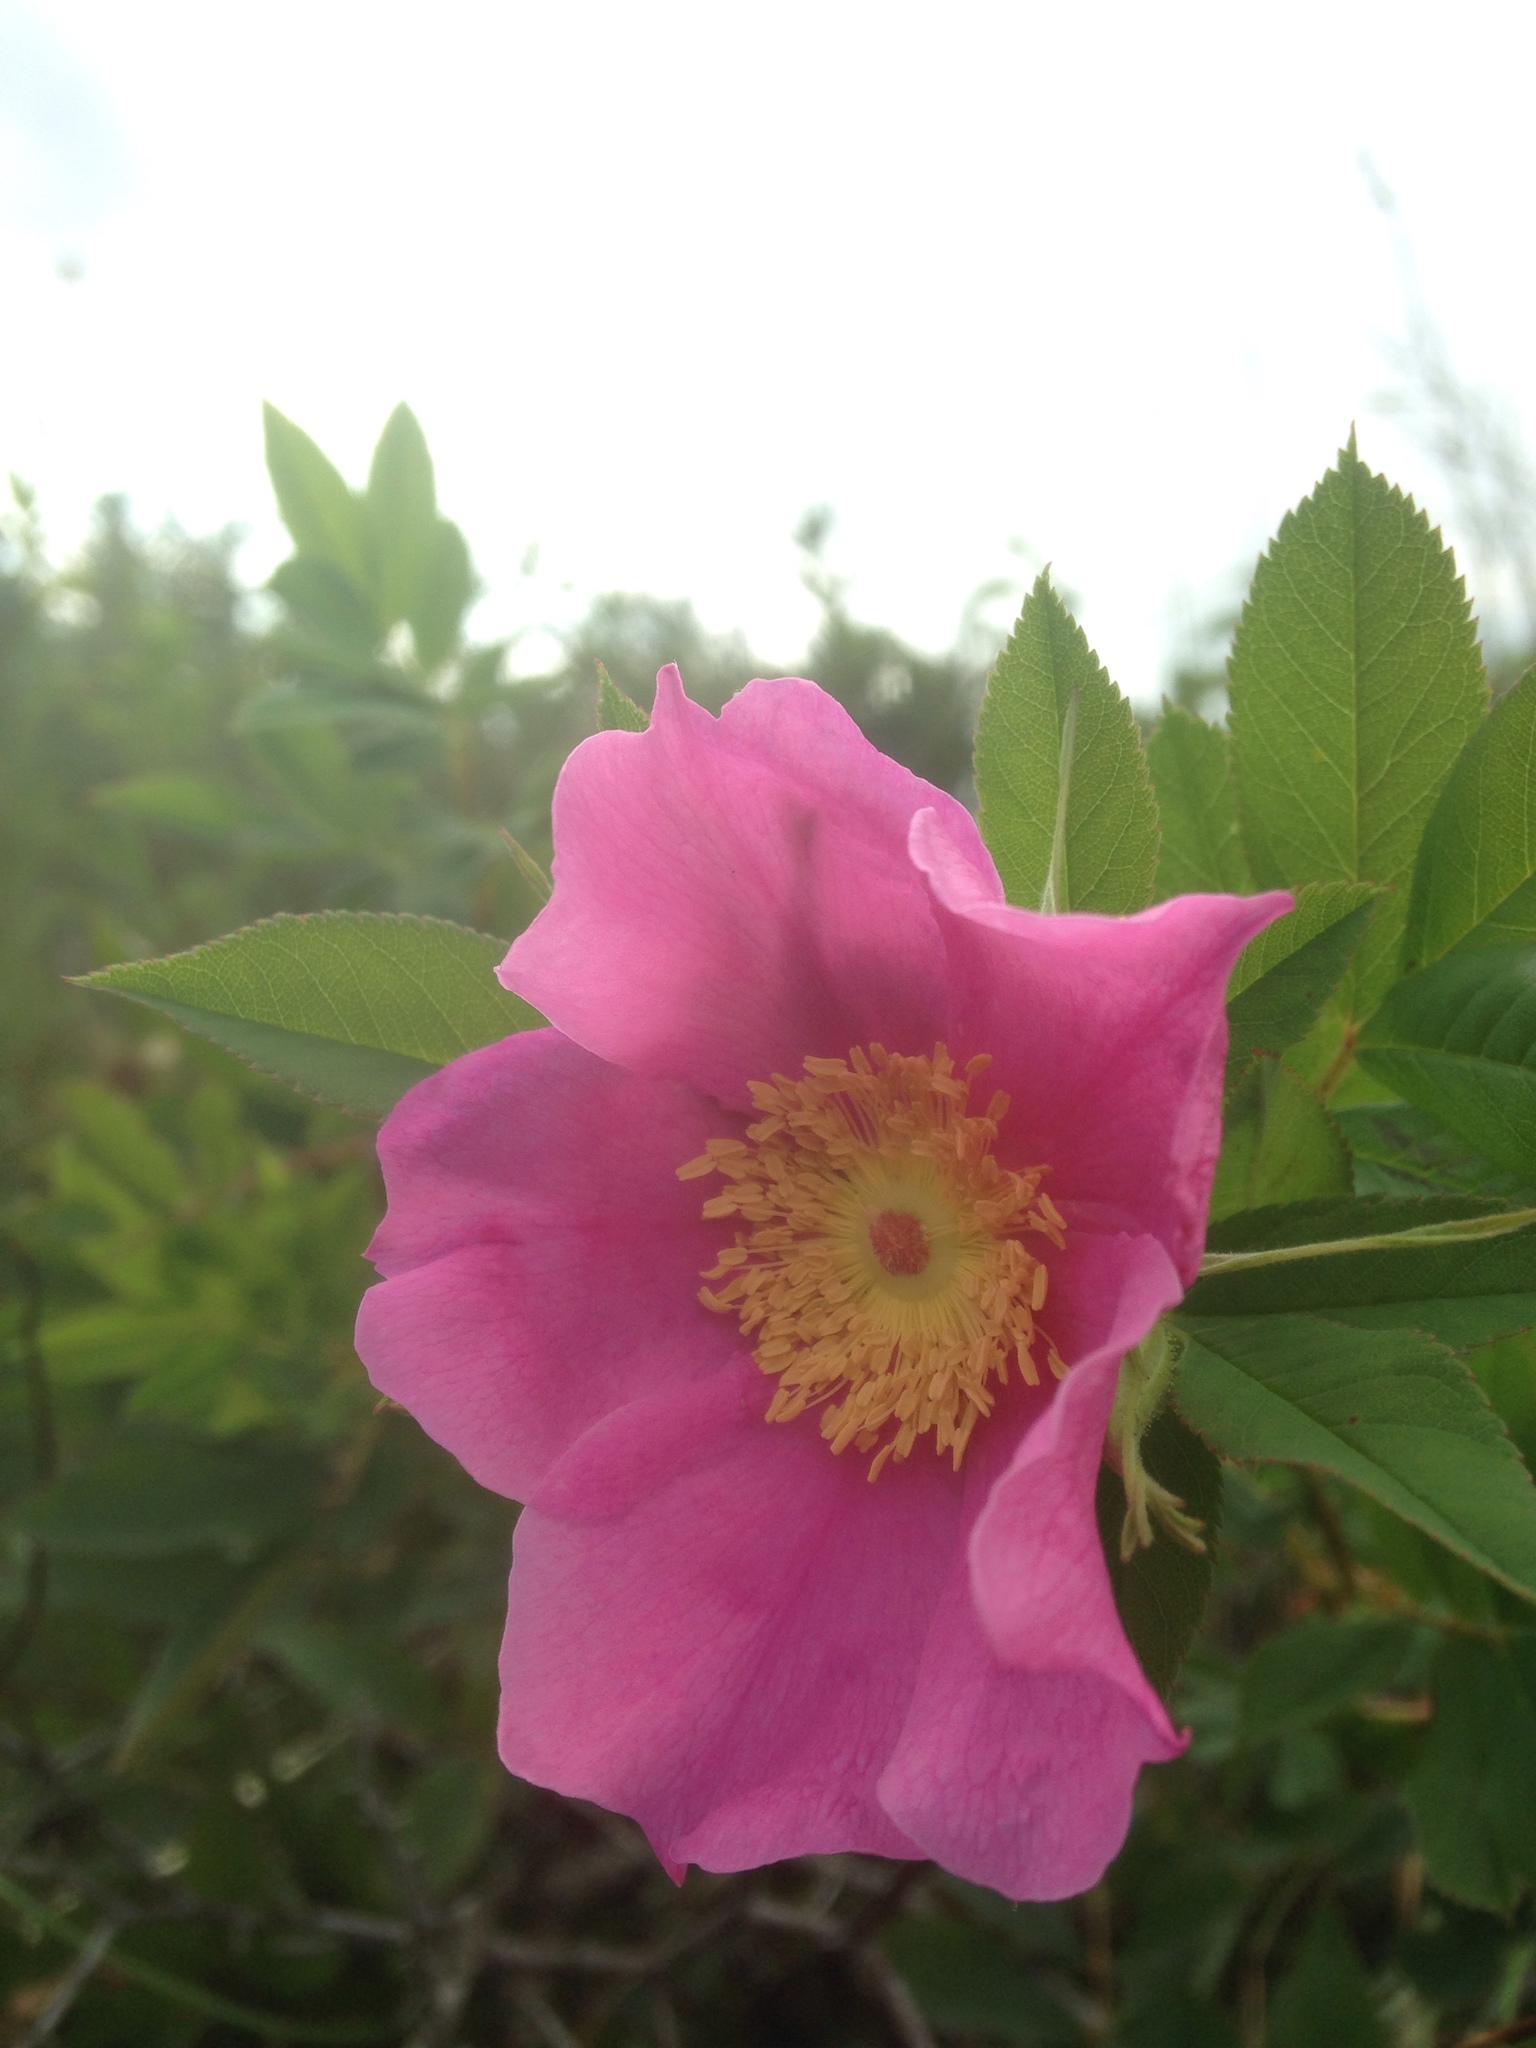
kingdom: Plantae
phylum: Tracheophyta
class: Magnoliopsida
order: Rosales
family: Rosaceae
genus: Rosa
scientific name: Rosa rugosa
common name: Japanese rose
